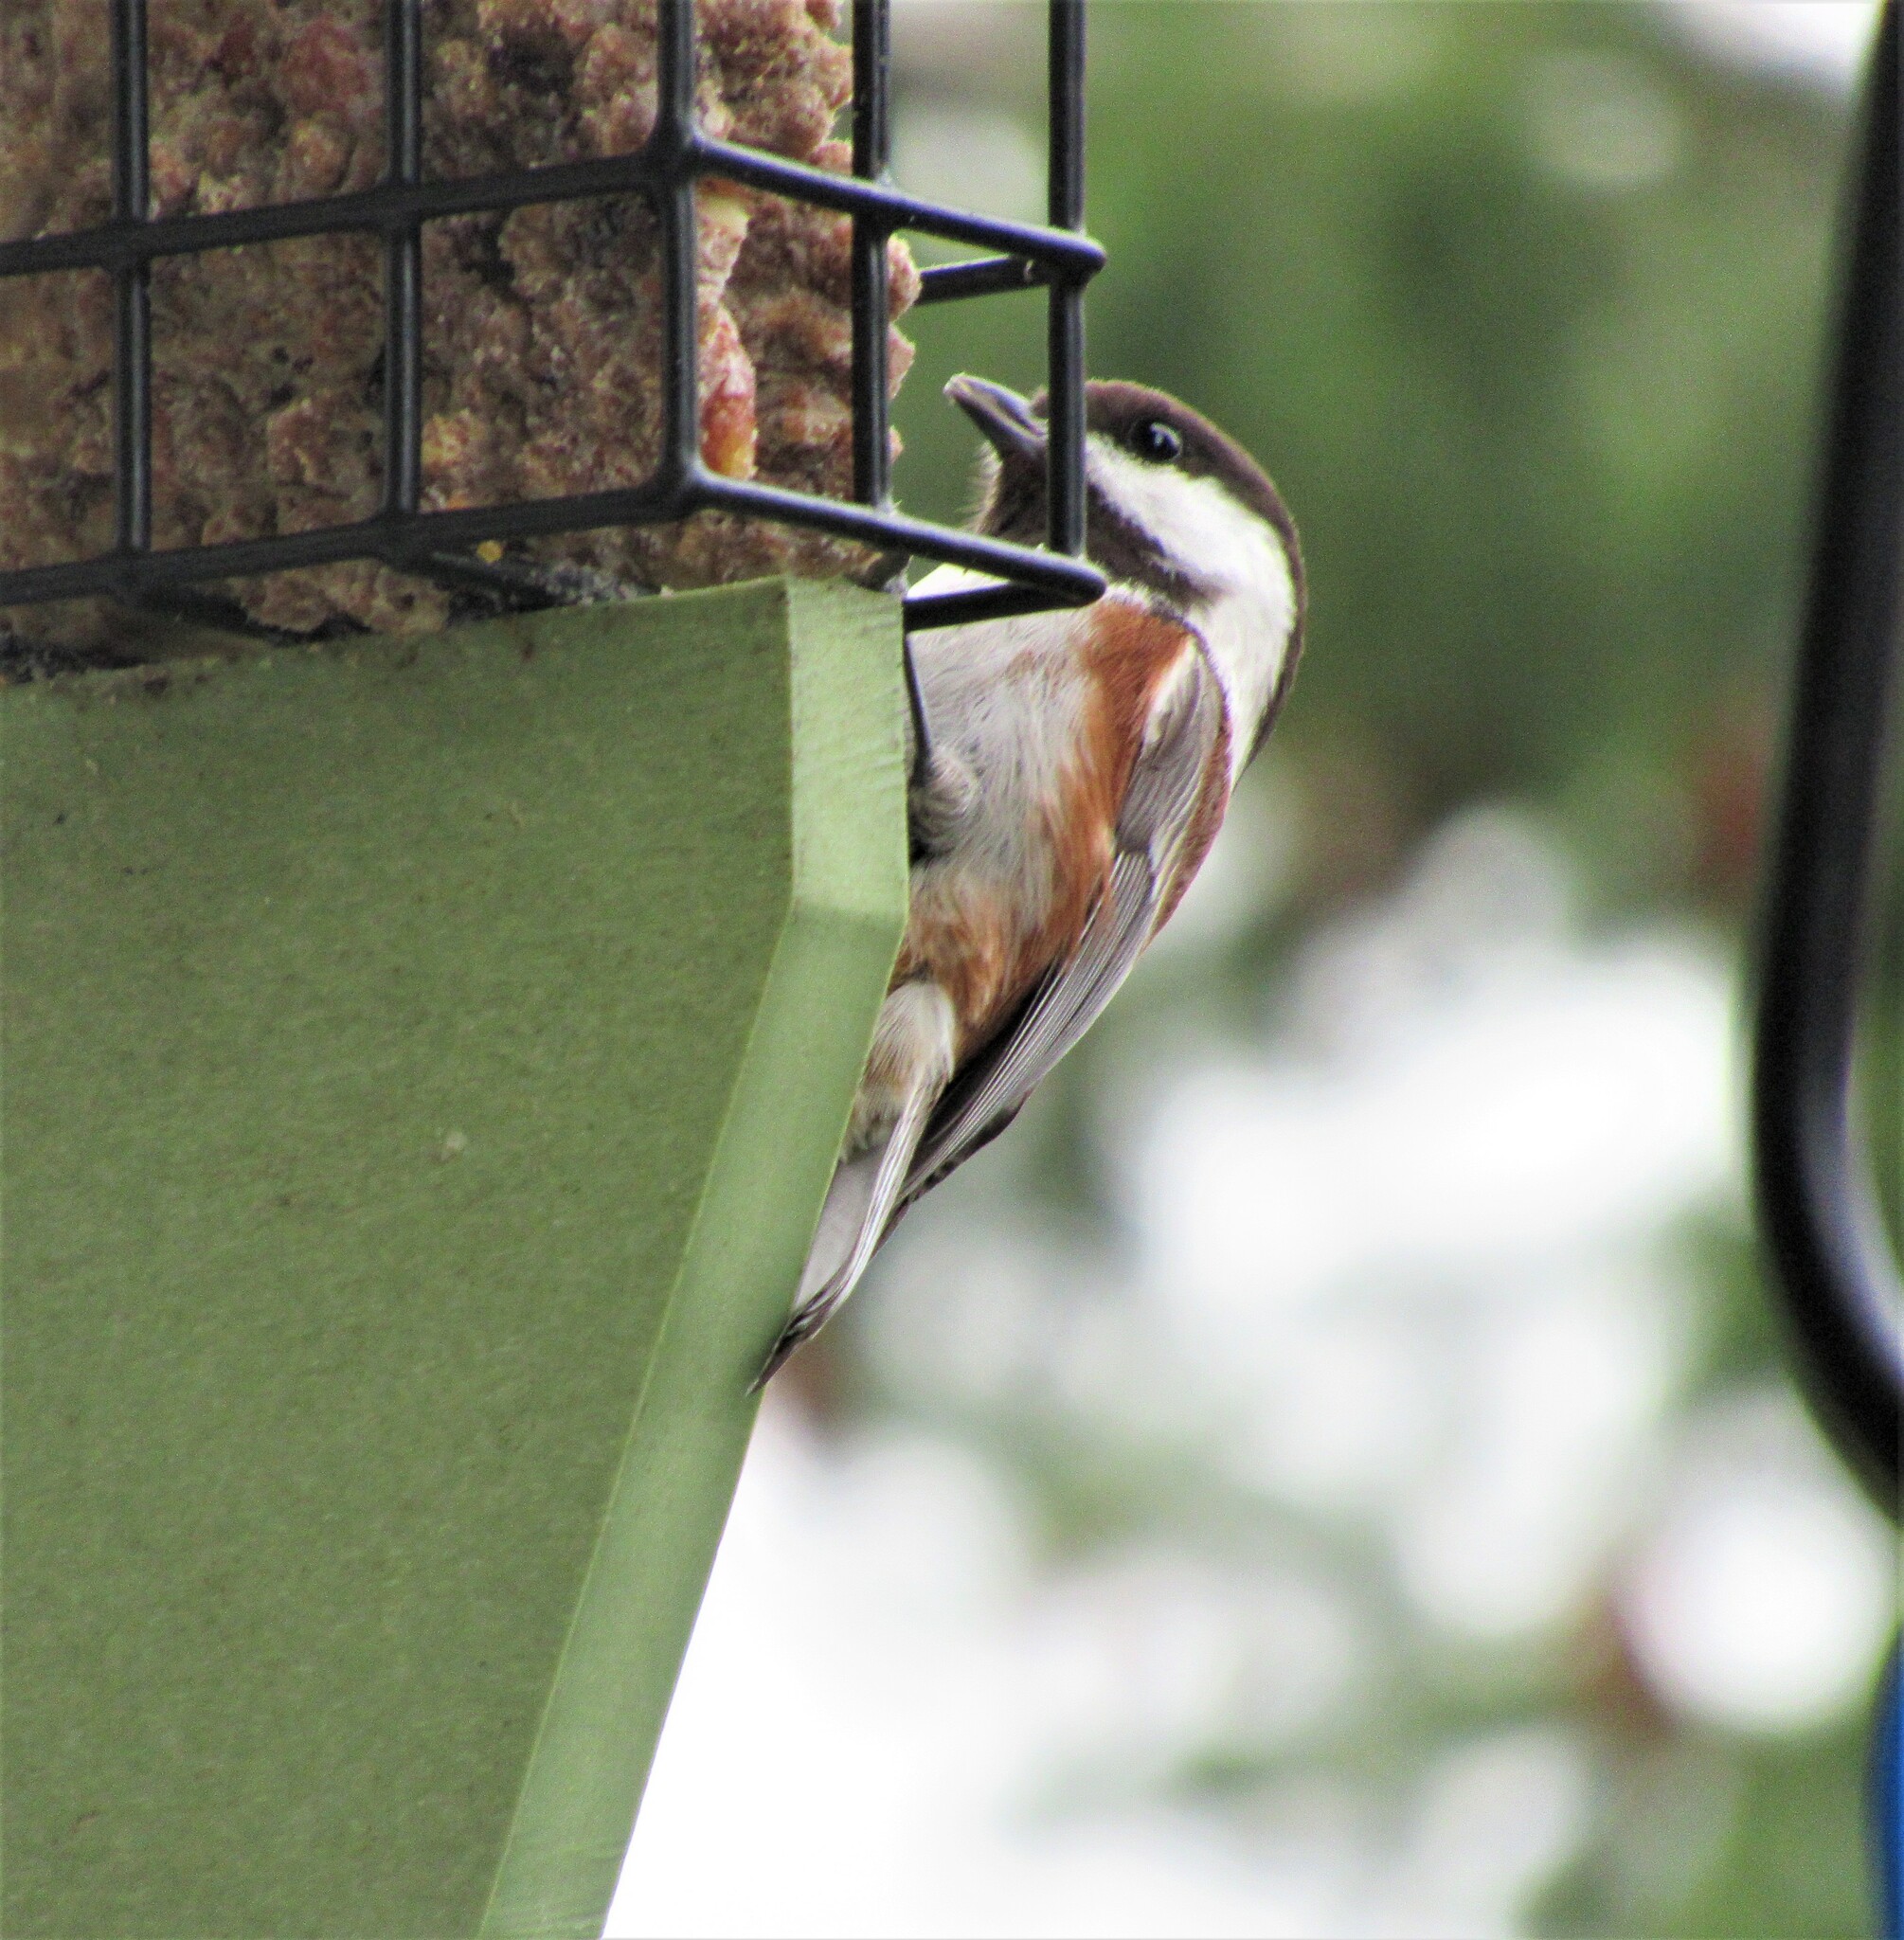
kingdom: Animalia
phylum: Chordata
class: Aves
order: Passeriformes
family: Paridae
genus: Poecile
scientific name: Poecile rufescens
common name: Chestnut-backed chickadee
